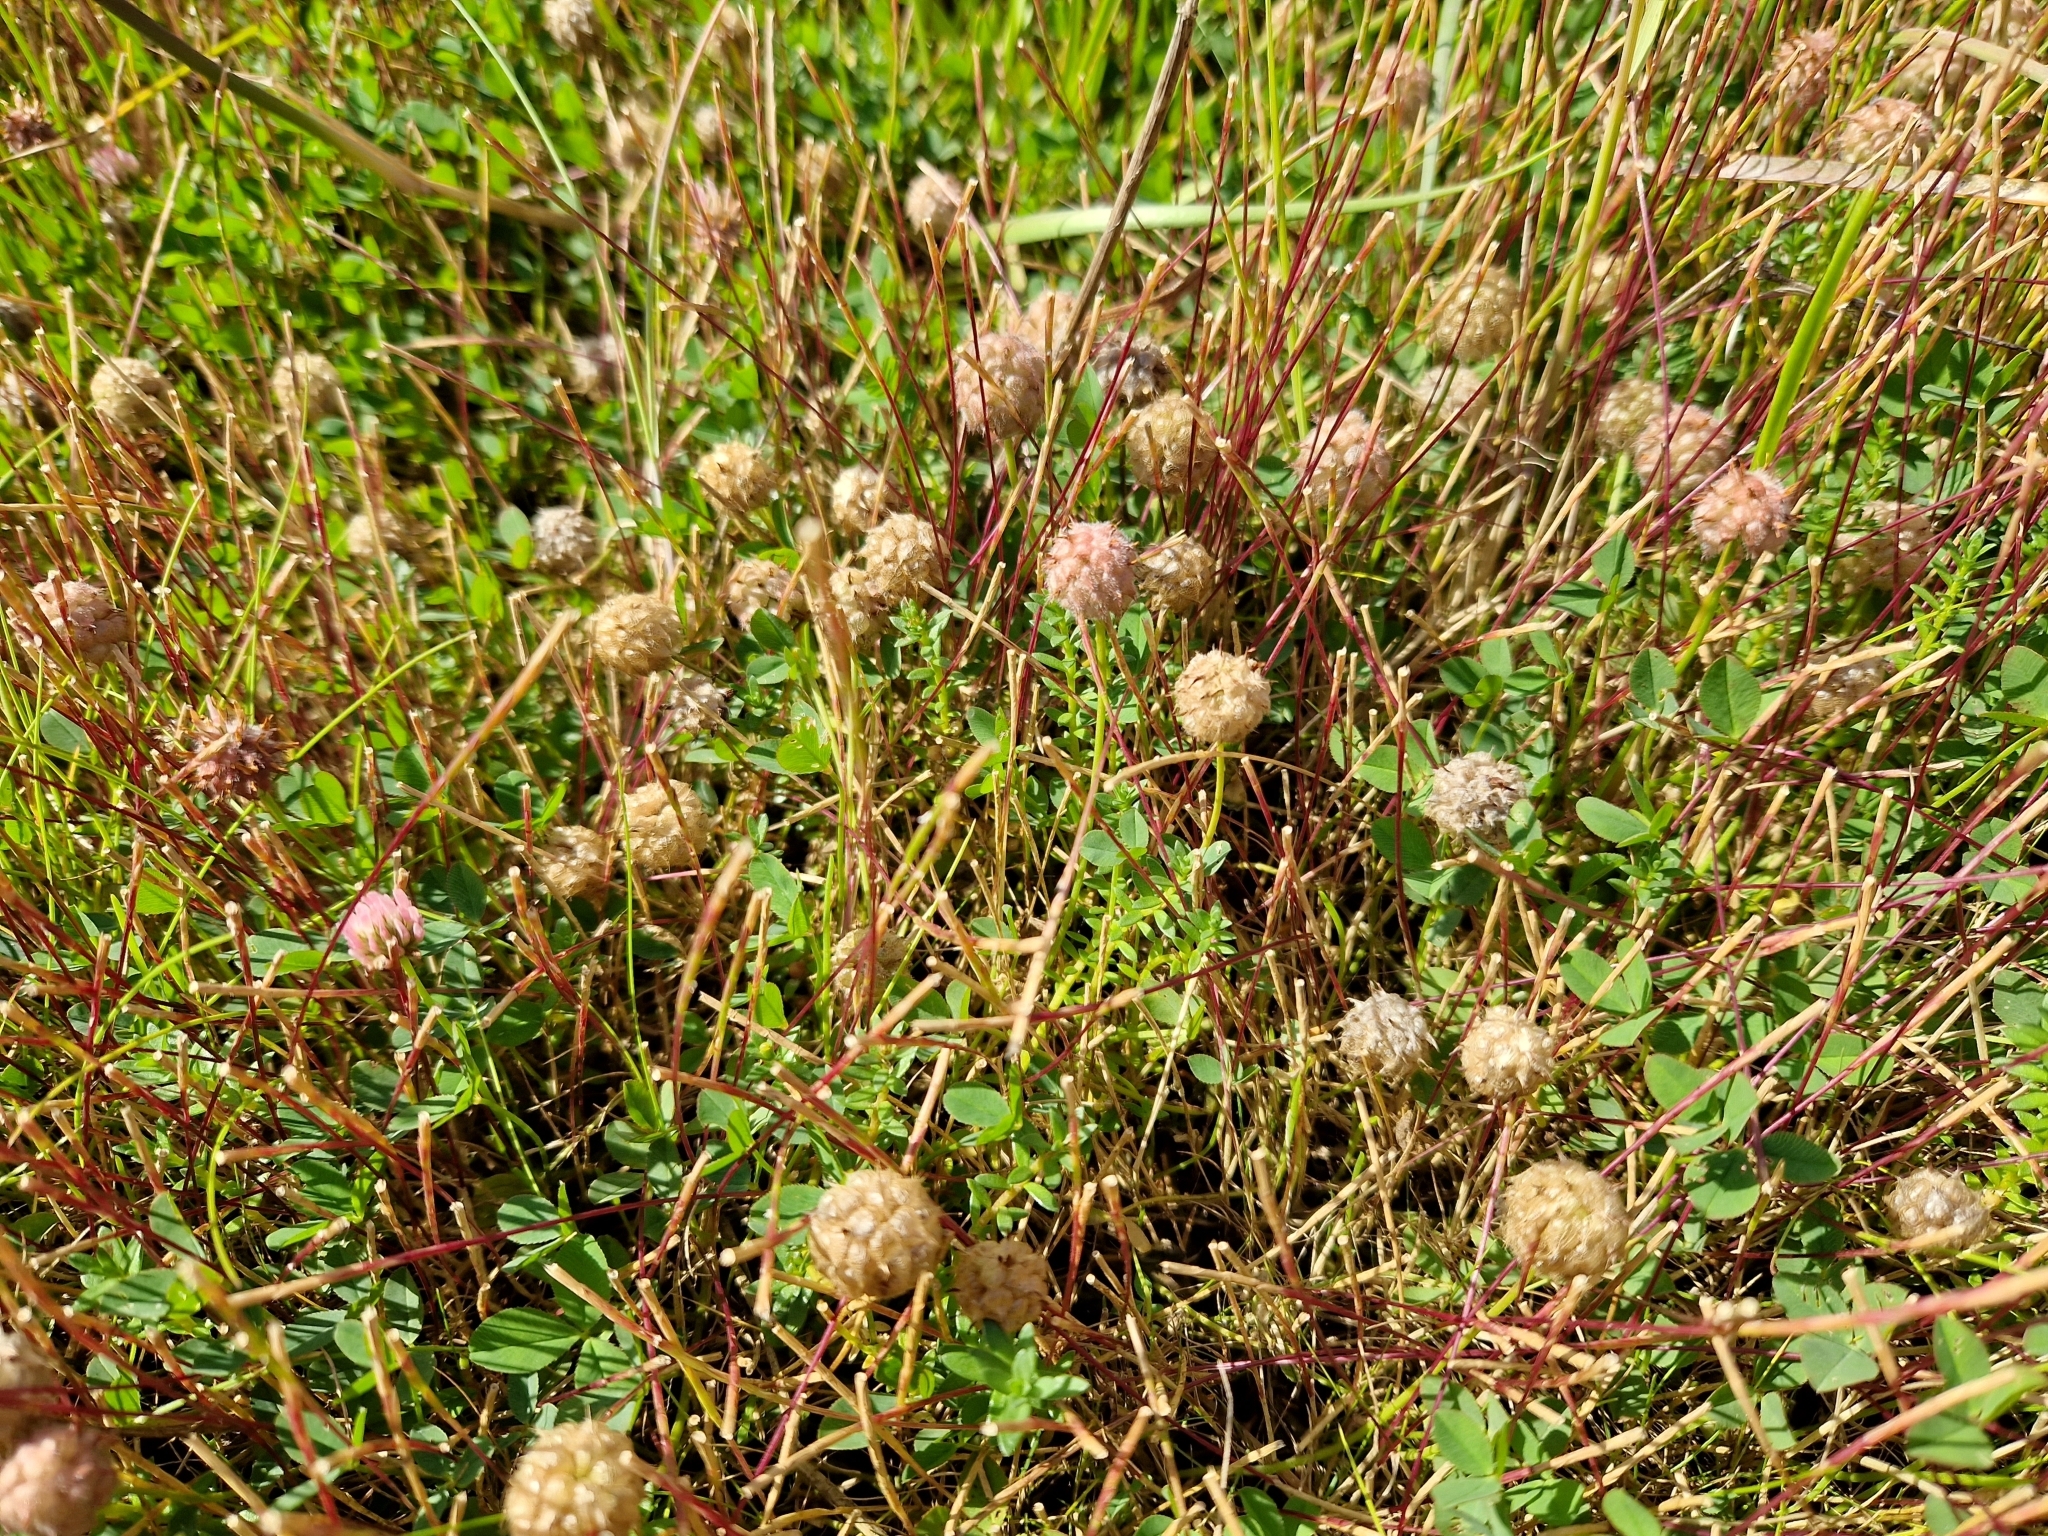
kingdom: Plantae
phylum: Tracheophyta
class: Magnoliopsida
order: Fabales
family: Fabaceae
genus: Trifolium
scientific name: Trifolium fragiferum
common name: Strawberry clover
